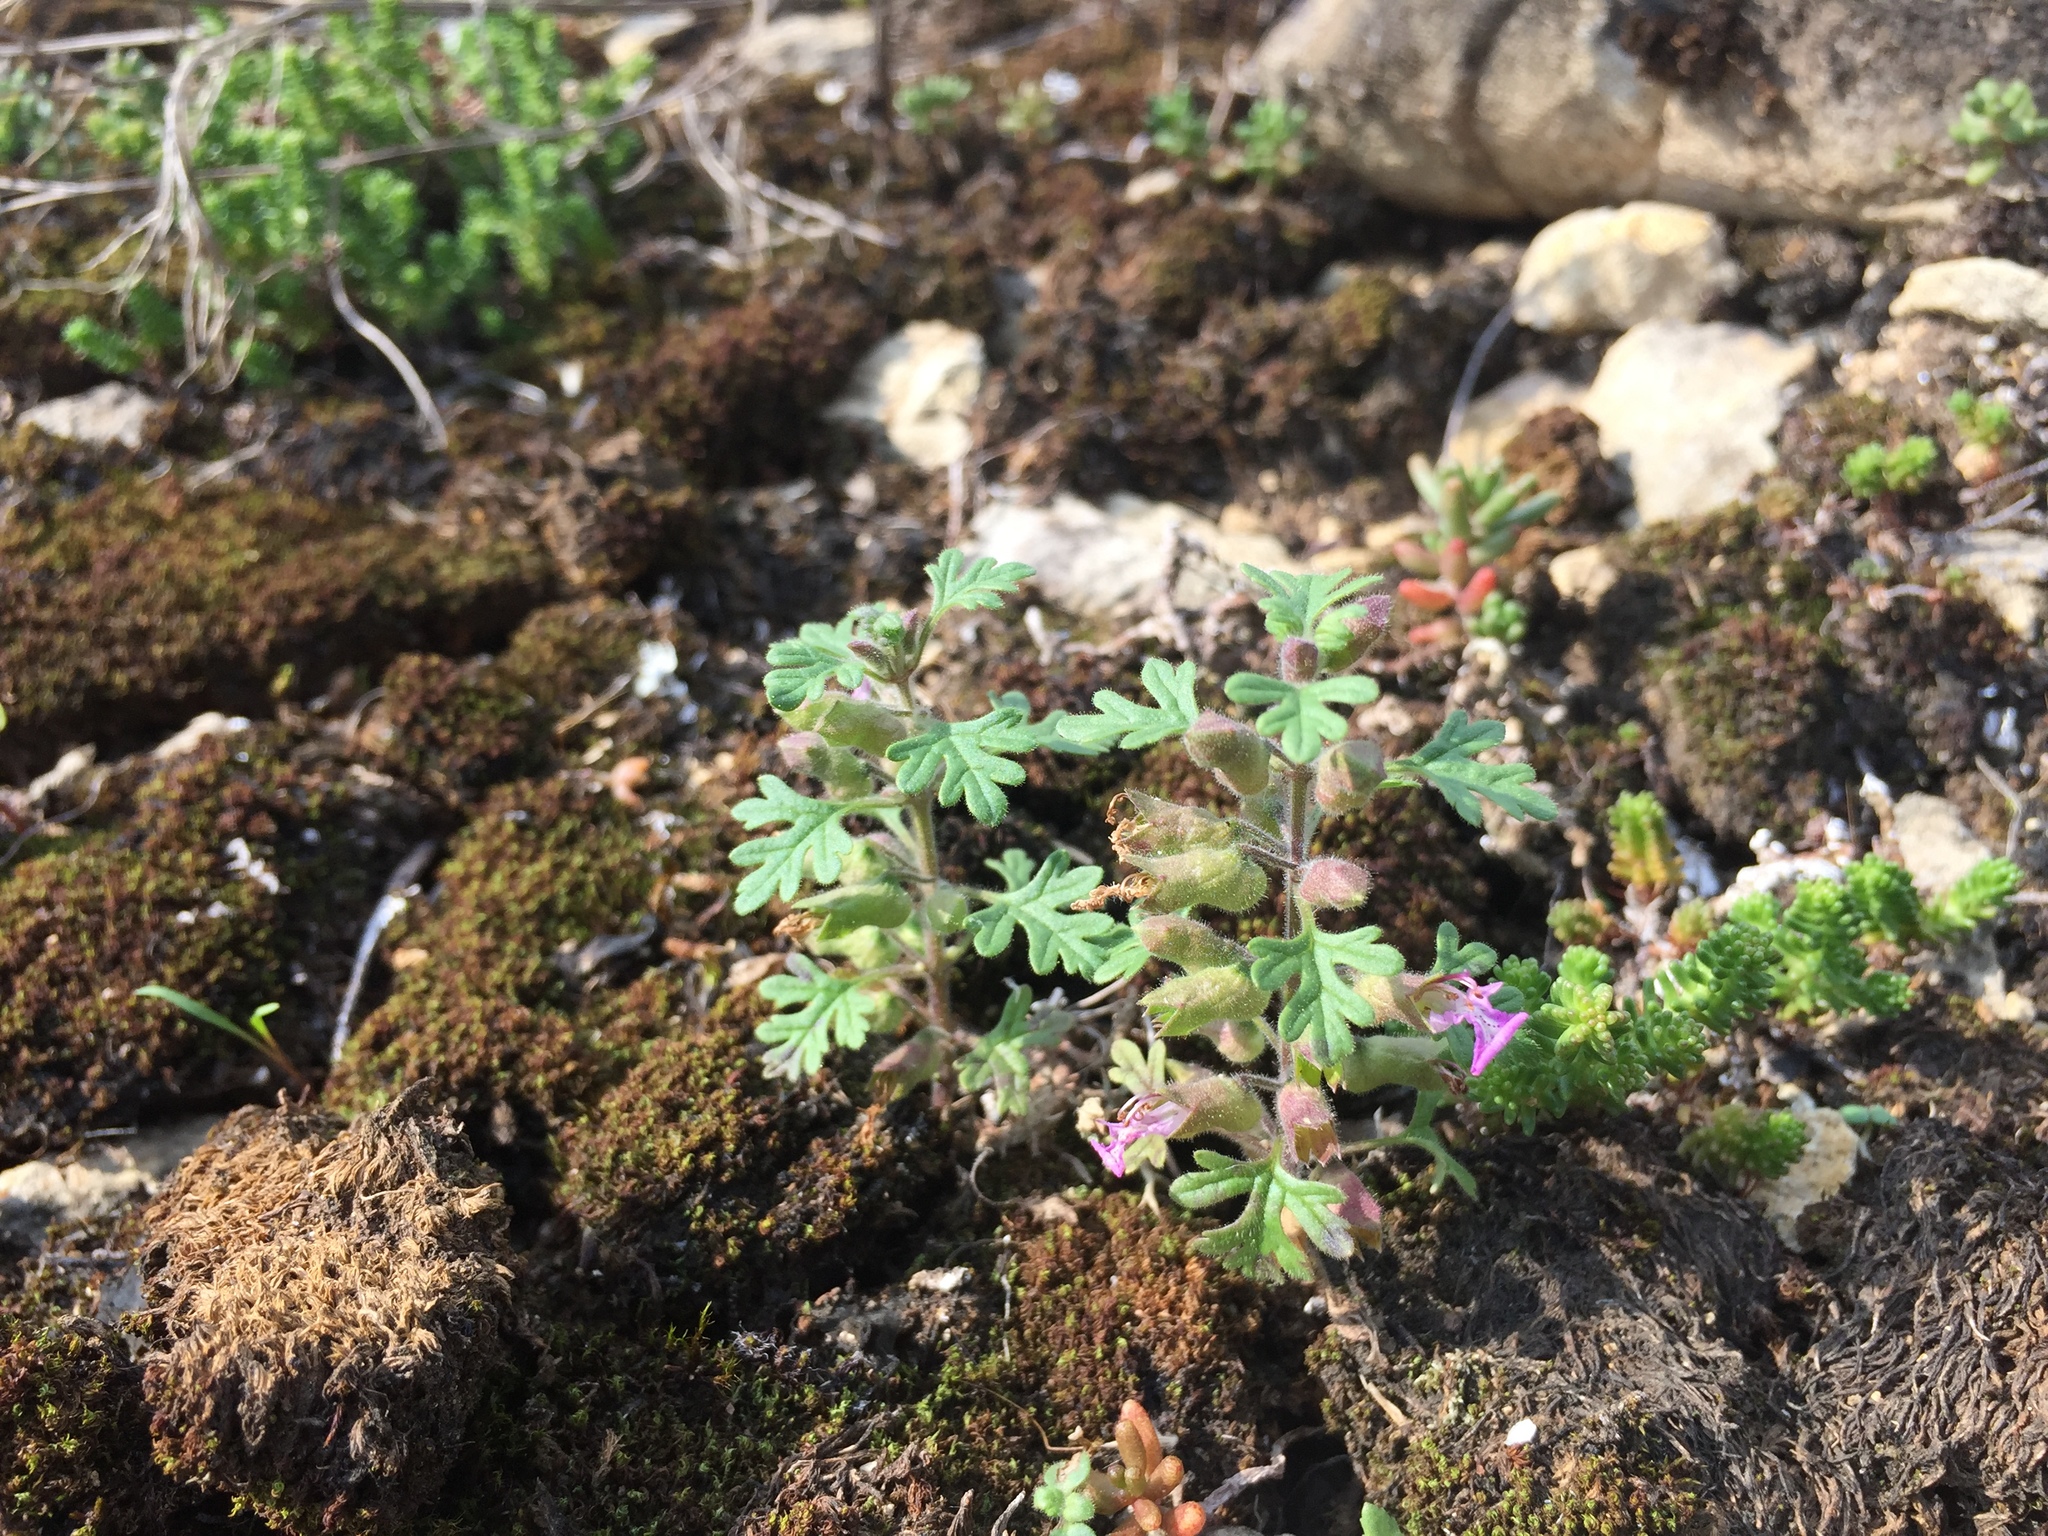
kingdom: Plantae
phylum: Tracheophyta
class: Magnoliopsida
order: Lamiales
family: Lamiaceae
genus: Teucrium
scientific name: Teucrium botrys
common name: Cut-leaved germander
